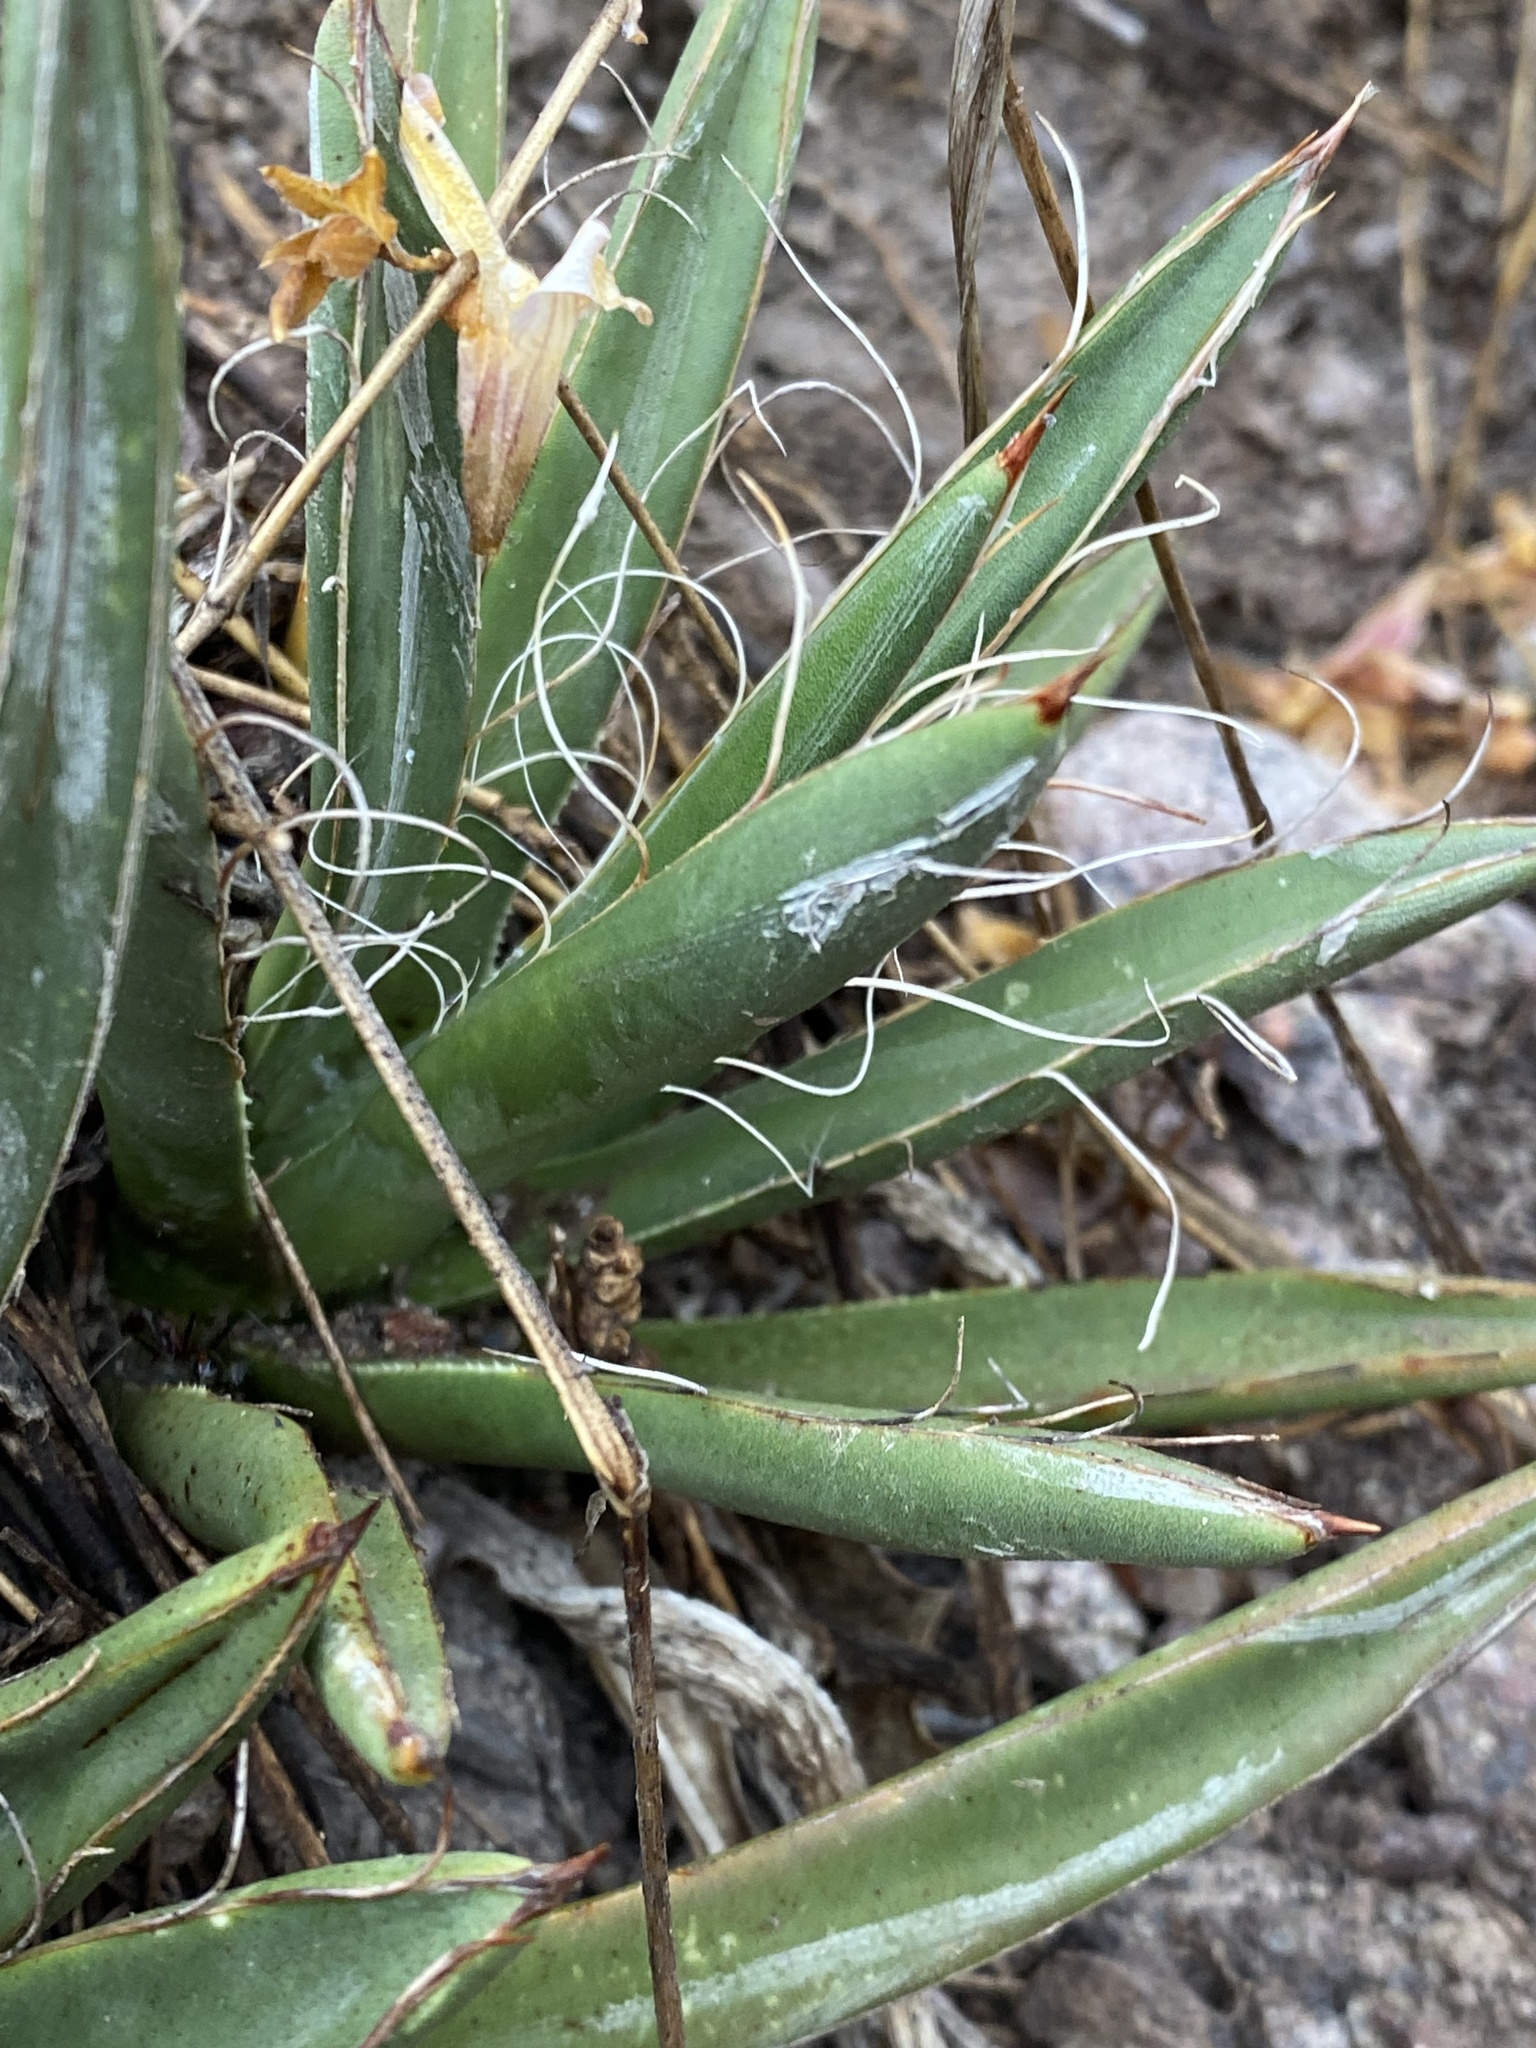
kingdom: Plantae
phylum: Tracheophyta
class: Liliopsida
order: Asparagales
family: Asparagaceae
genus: Agave
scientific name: Agave parviflora
